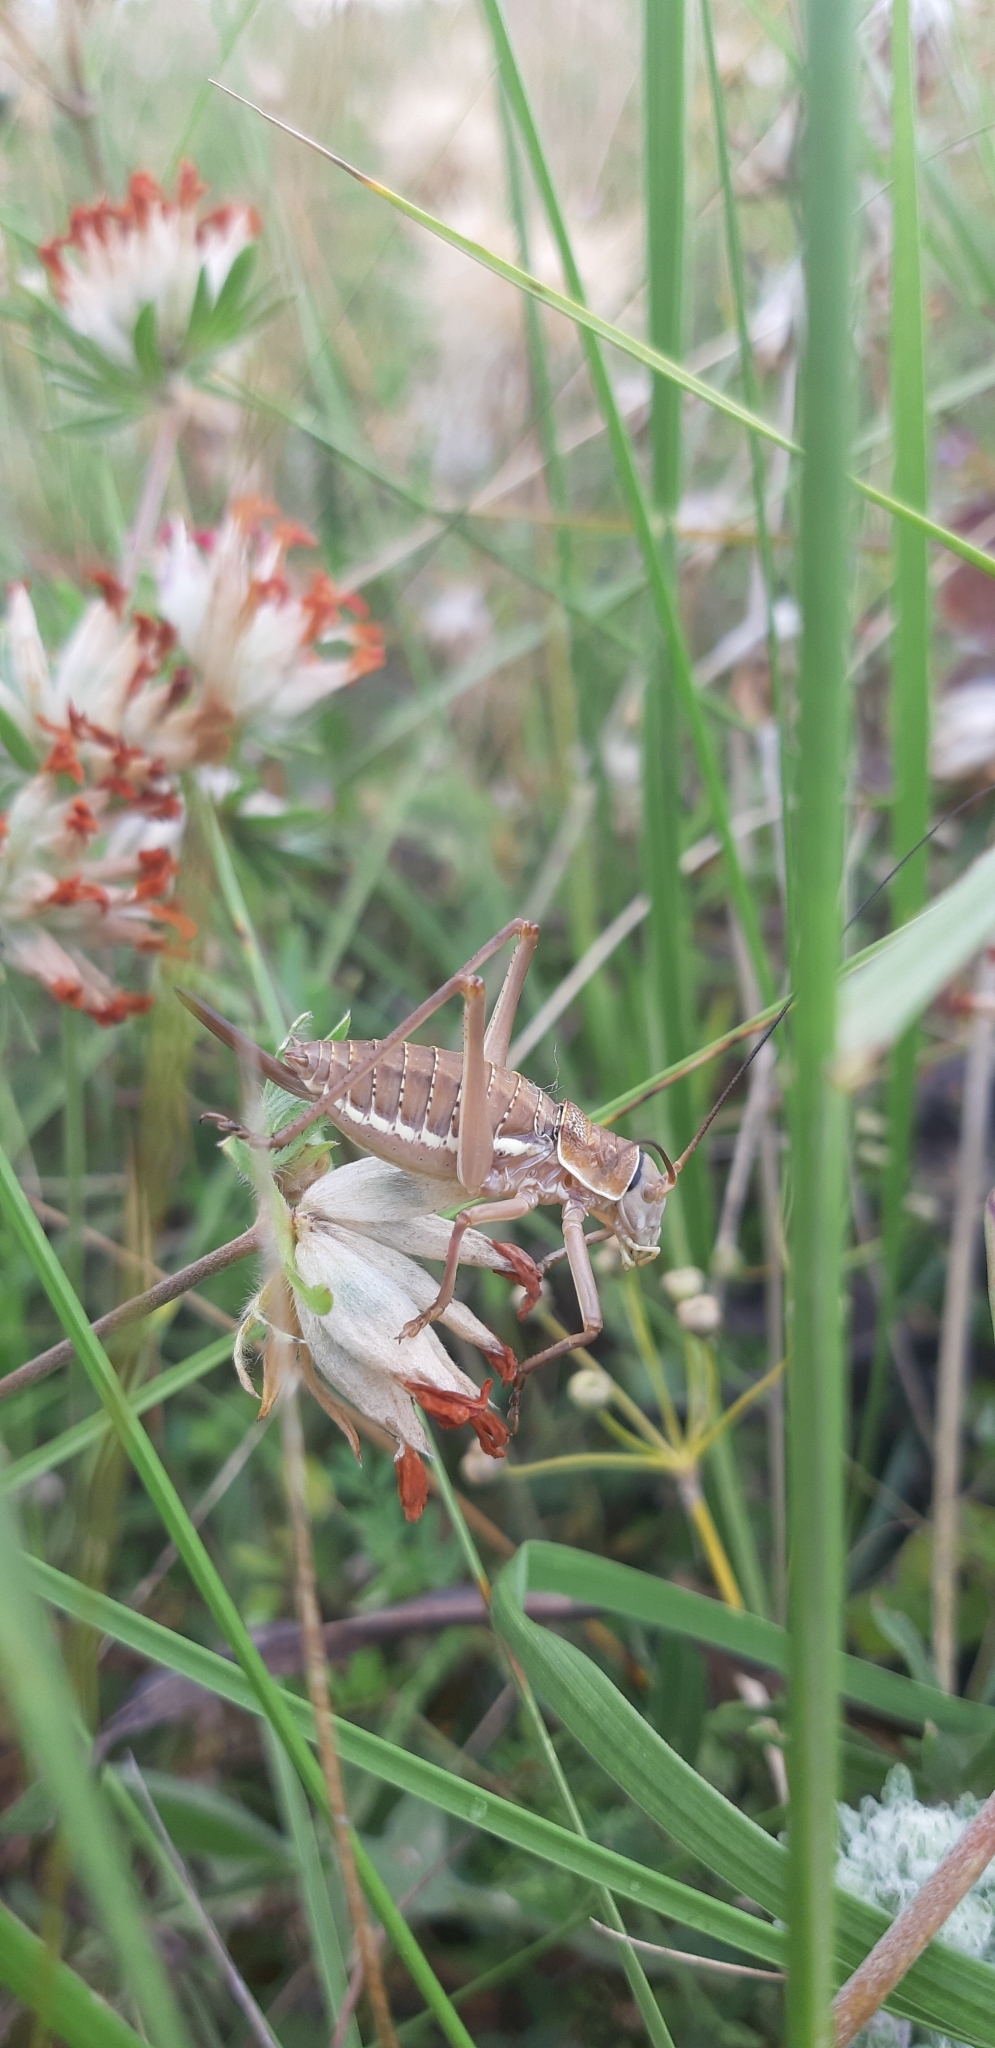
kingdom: Animalia
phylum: Arthropoda
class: Insecta
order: Orthoptera
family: Tettigoniidae
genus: Ephippiger
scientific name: Ephippiger apulus
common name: Apulian saddle bush-cricket
